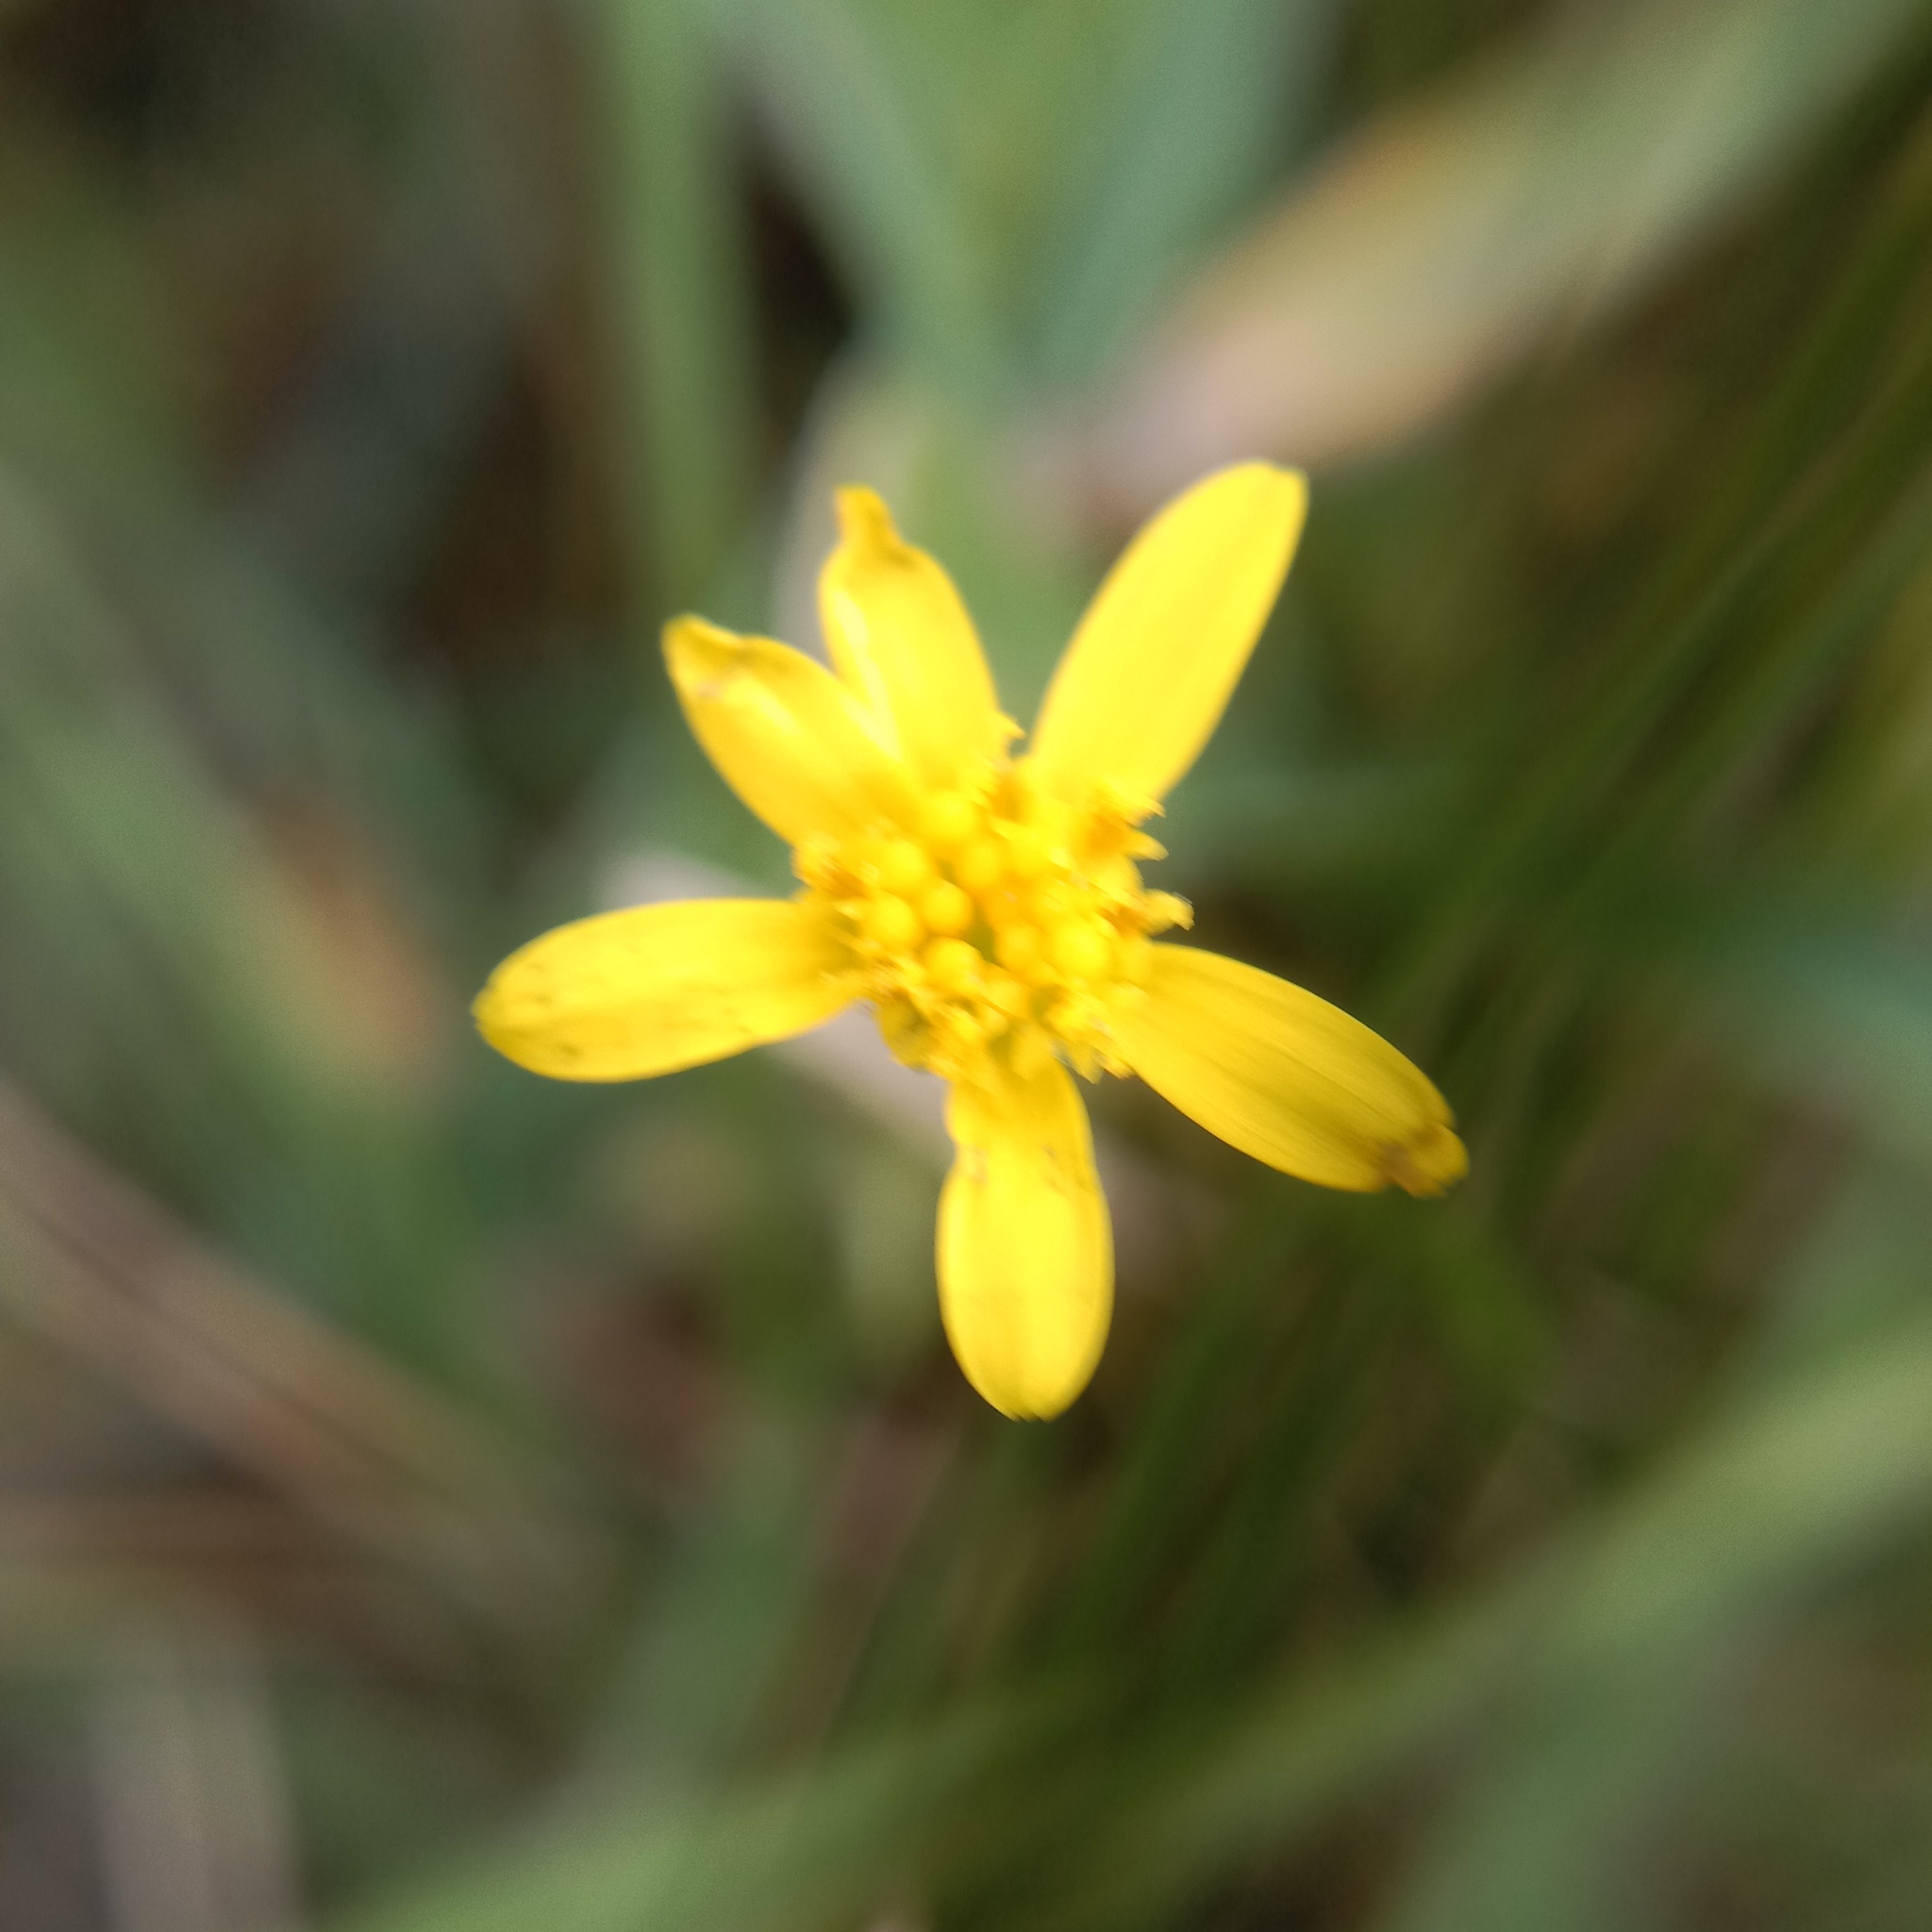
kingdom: Plantae
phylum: Tracheophyta
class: Magnoliopsida
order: Ranunculales
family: Ranunculaceae
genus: Ficaria
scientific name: Ficaria verna
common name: Lesser celandine
